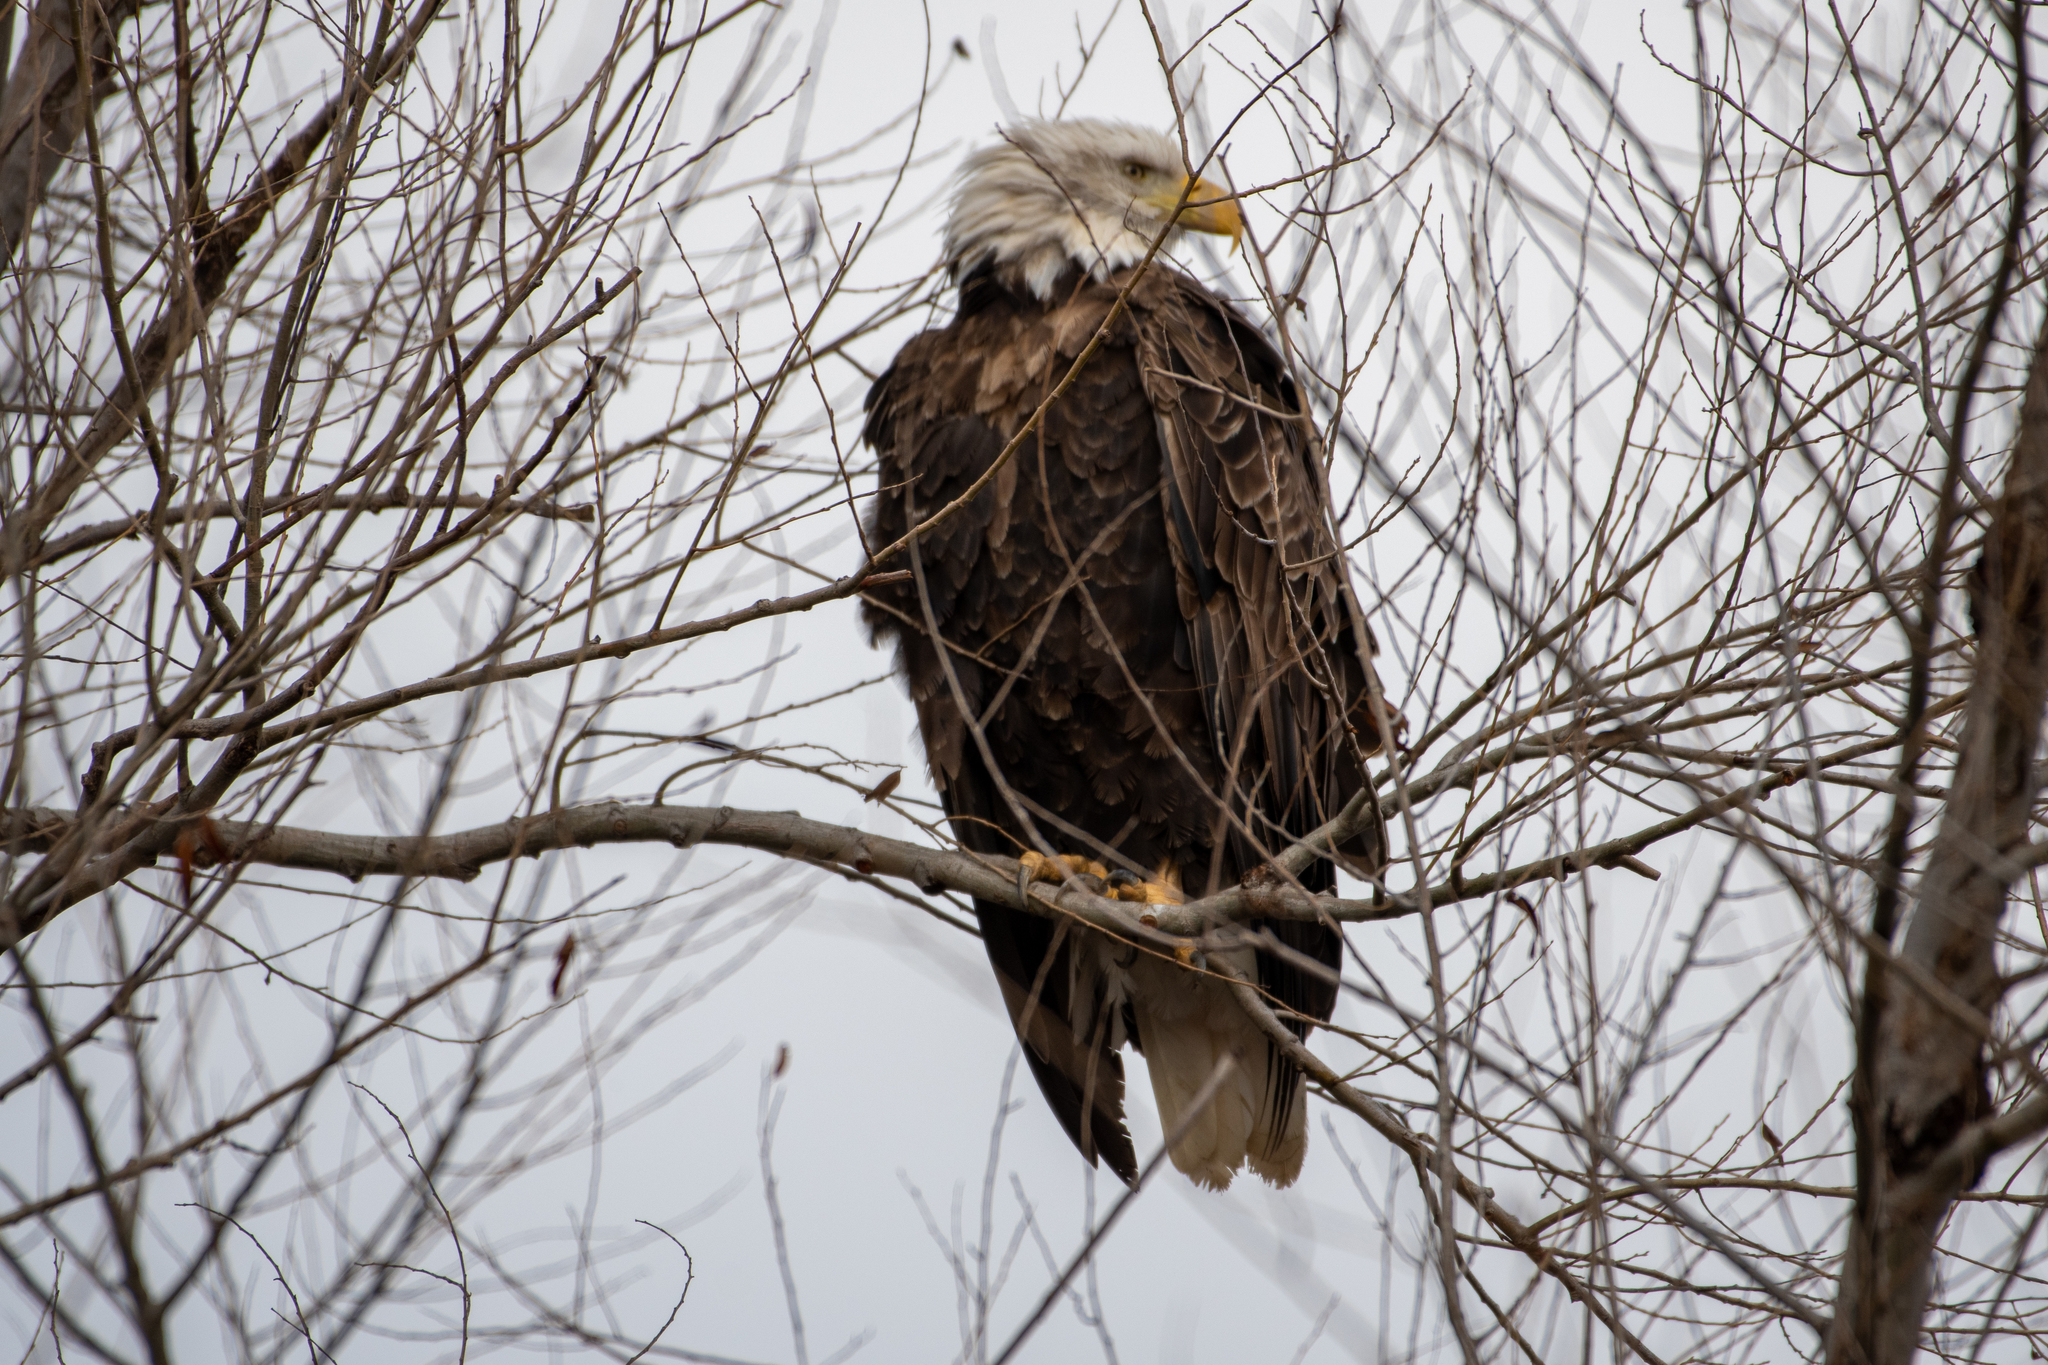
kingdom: Animalia
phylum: Chordata
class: Aves
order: Accipitriformes
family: Accipitridae
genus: Haliaeetus
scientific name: Haliaeetus leucocephalus
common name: Bald eagle
